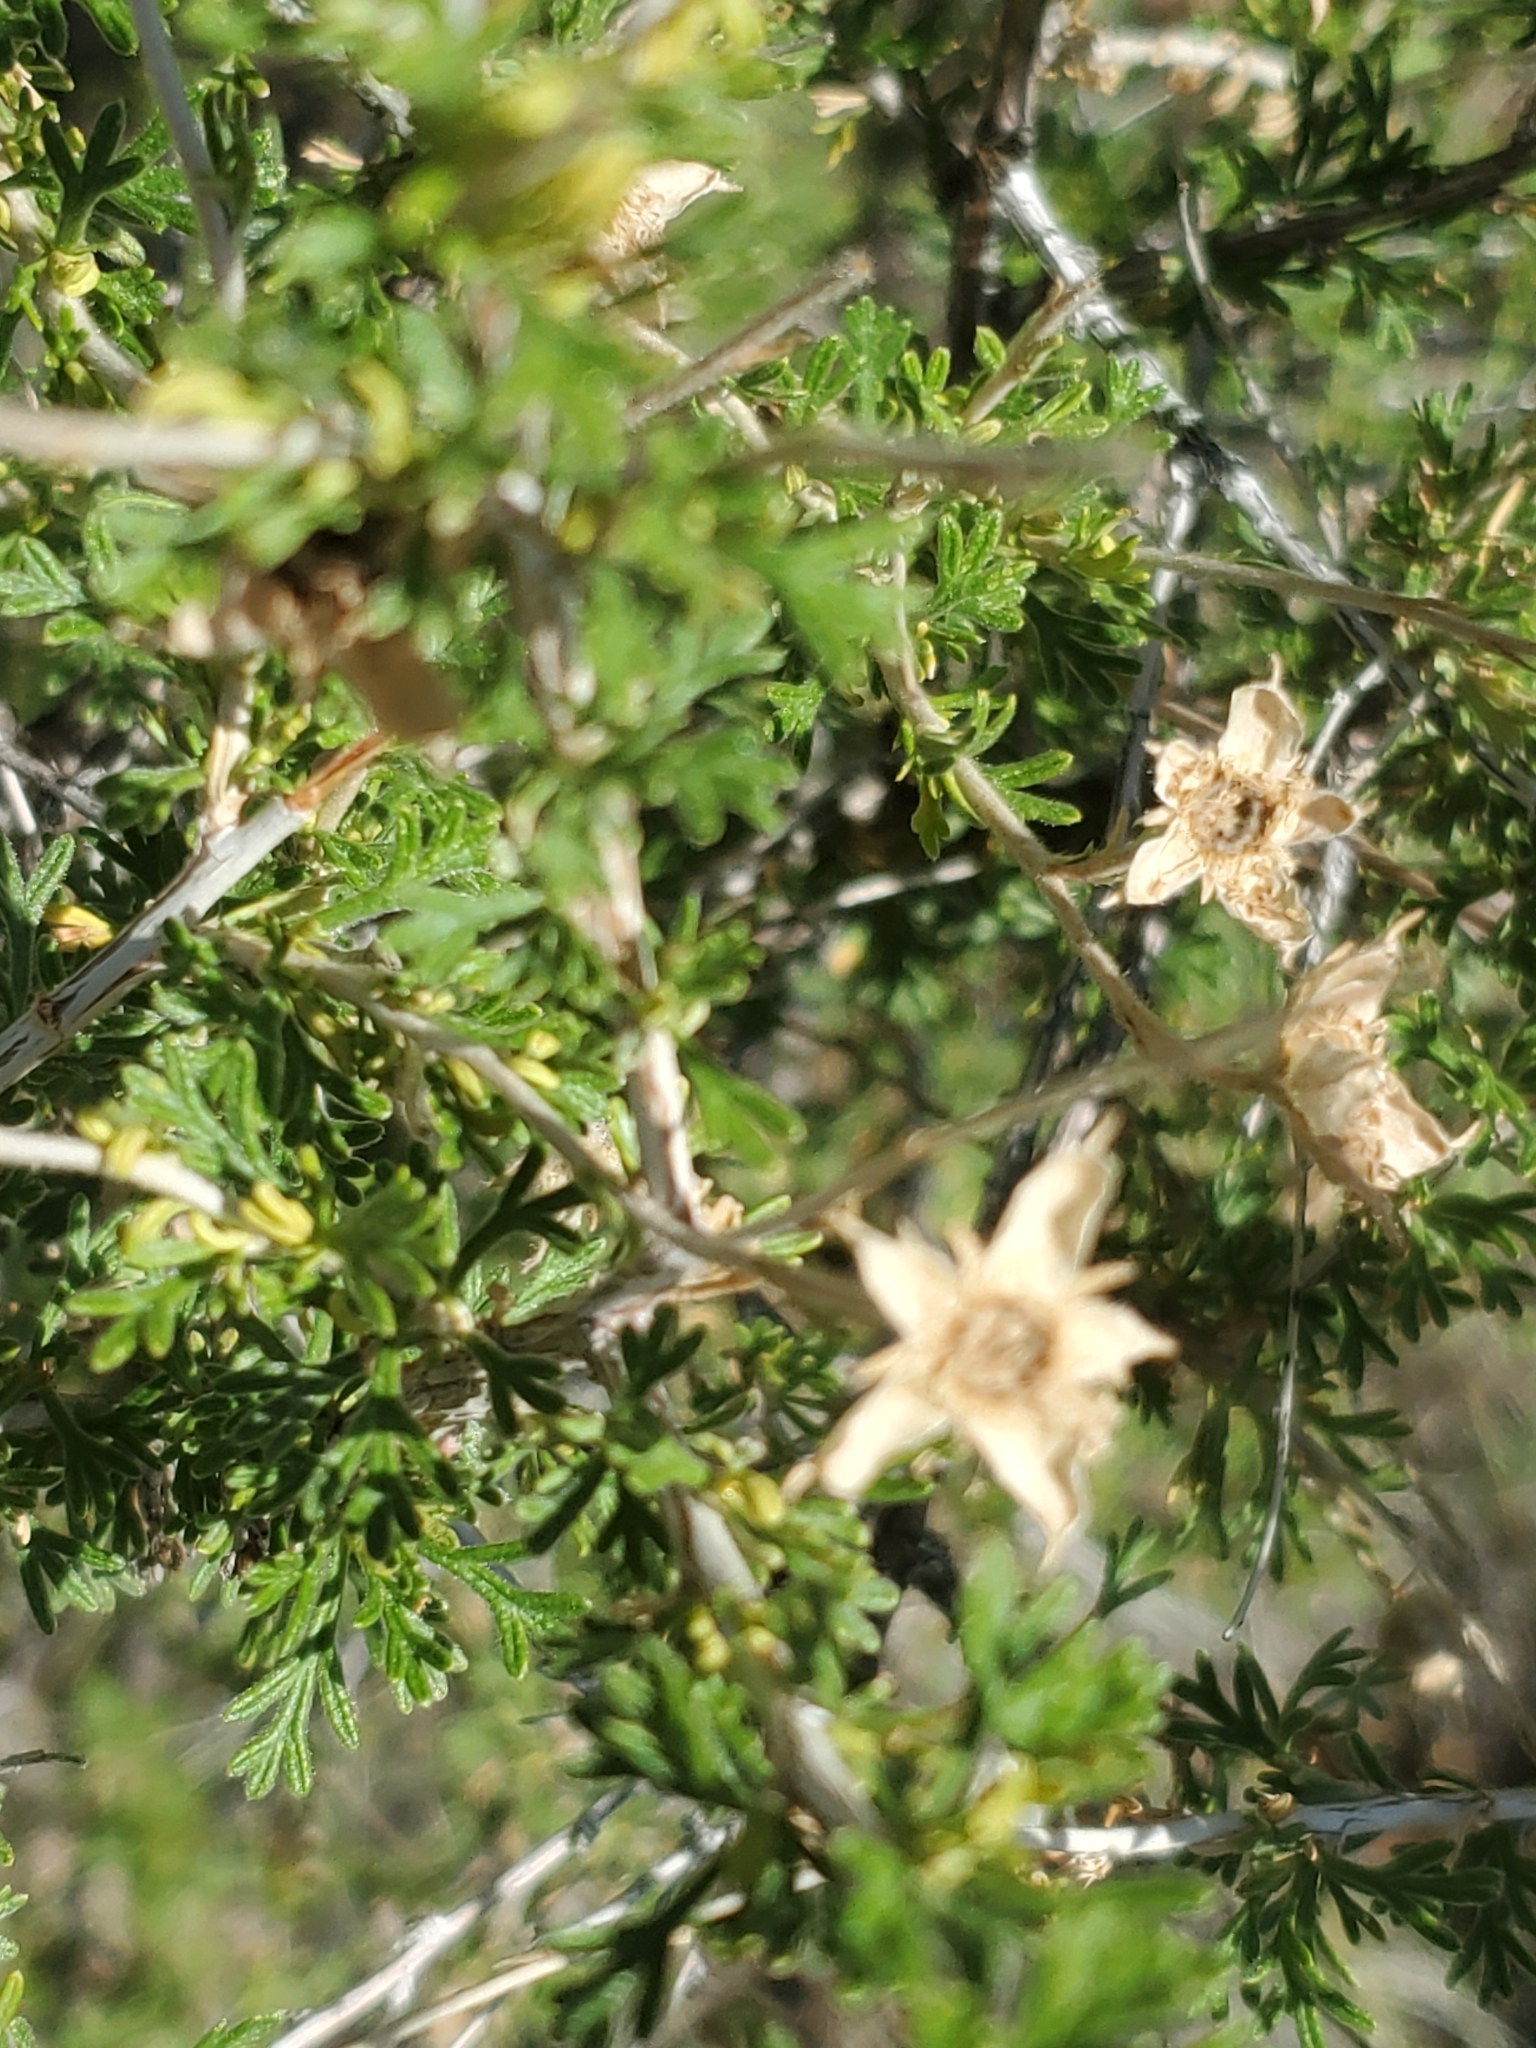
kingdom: Plantae
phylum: Tracheophyta
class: Magnoliopsida
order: Rosales
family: Rosaceae
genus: Fallugia
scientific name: Fallugia paradoxa
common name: Apache-plume
